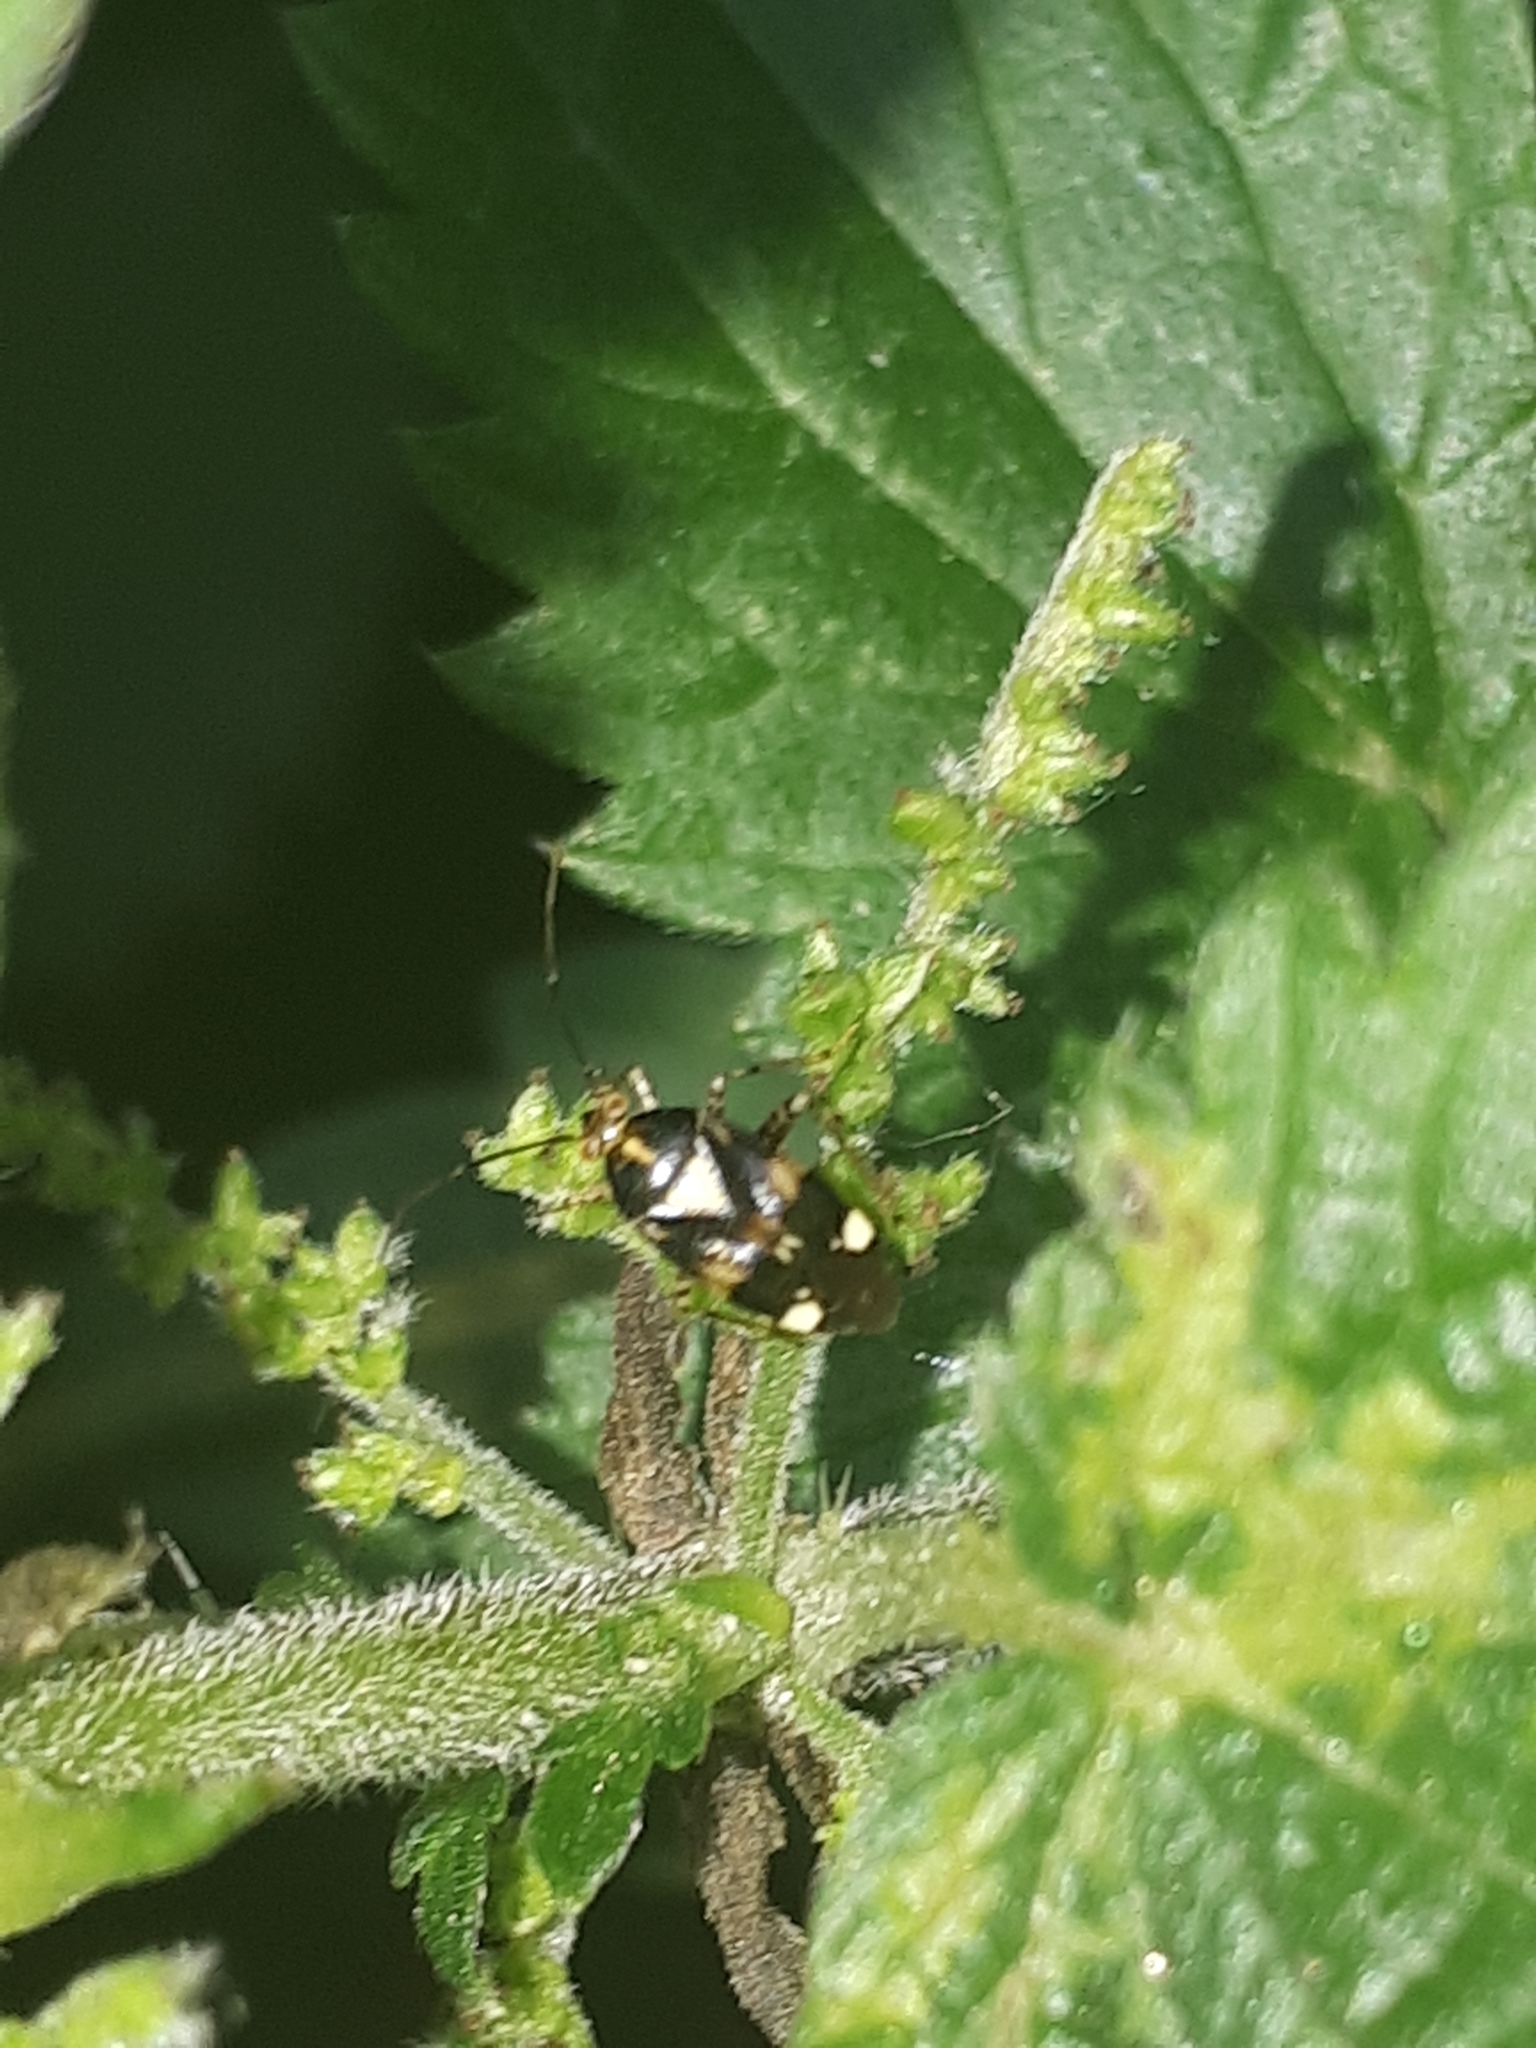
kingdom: Animalia
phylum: Arthropoda
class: Insecta
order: Hemiptera
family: Miridae
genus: Liocoris
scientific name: Liocoris tripustulatus
